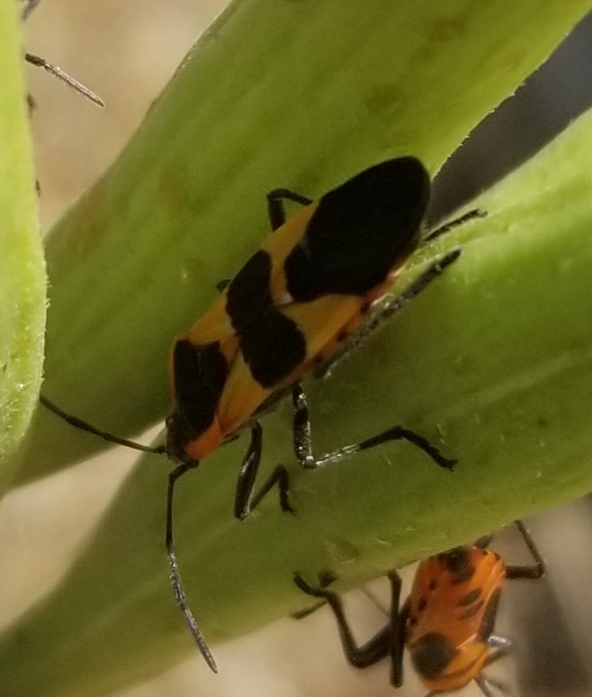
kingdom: Animalia
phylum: Arthropoda
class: Insecta
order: Hemiptera
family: Lygaeidae
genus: Oncopeltus
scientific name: Oncopeltus fasciatus
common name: Large milkweed bug
